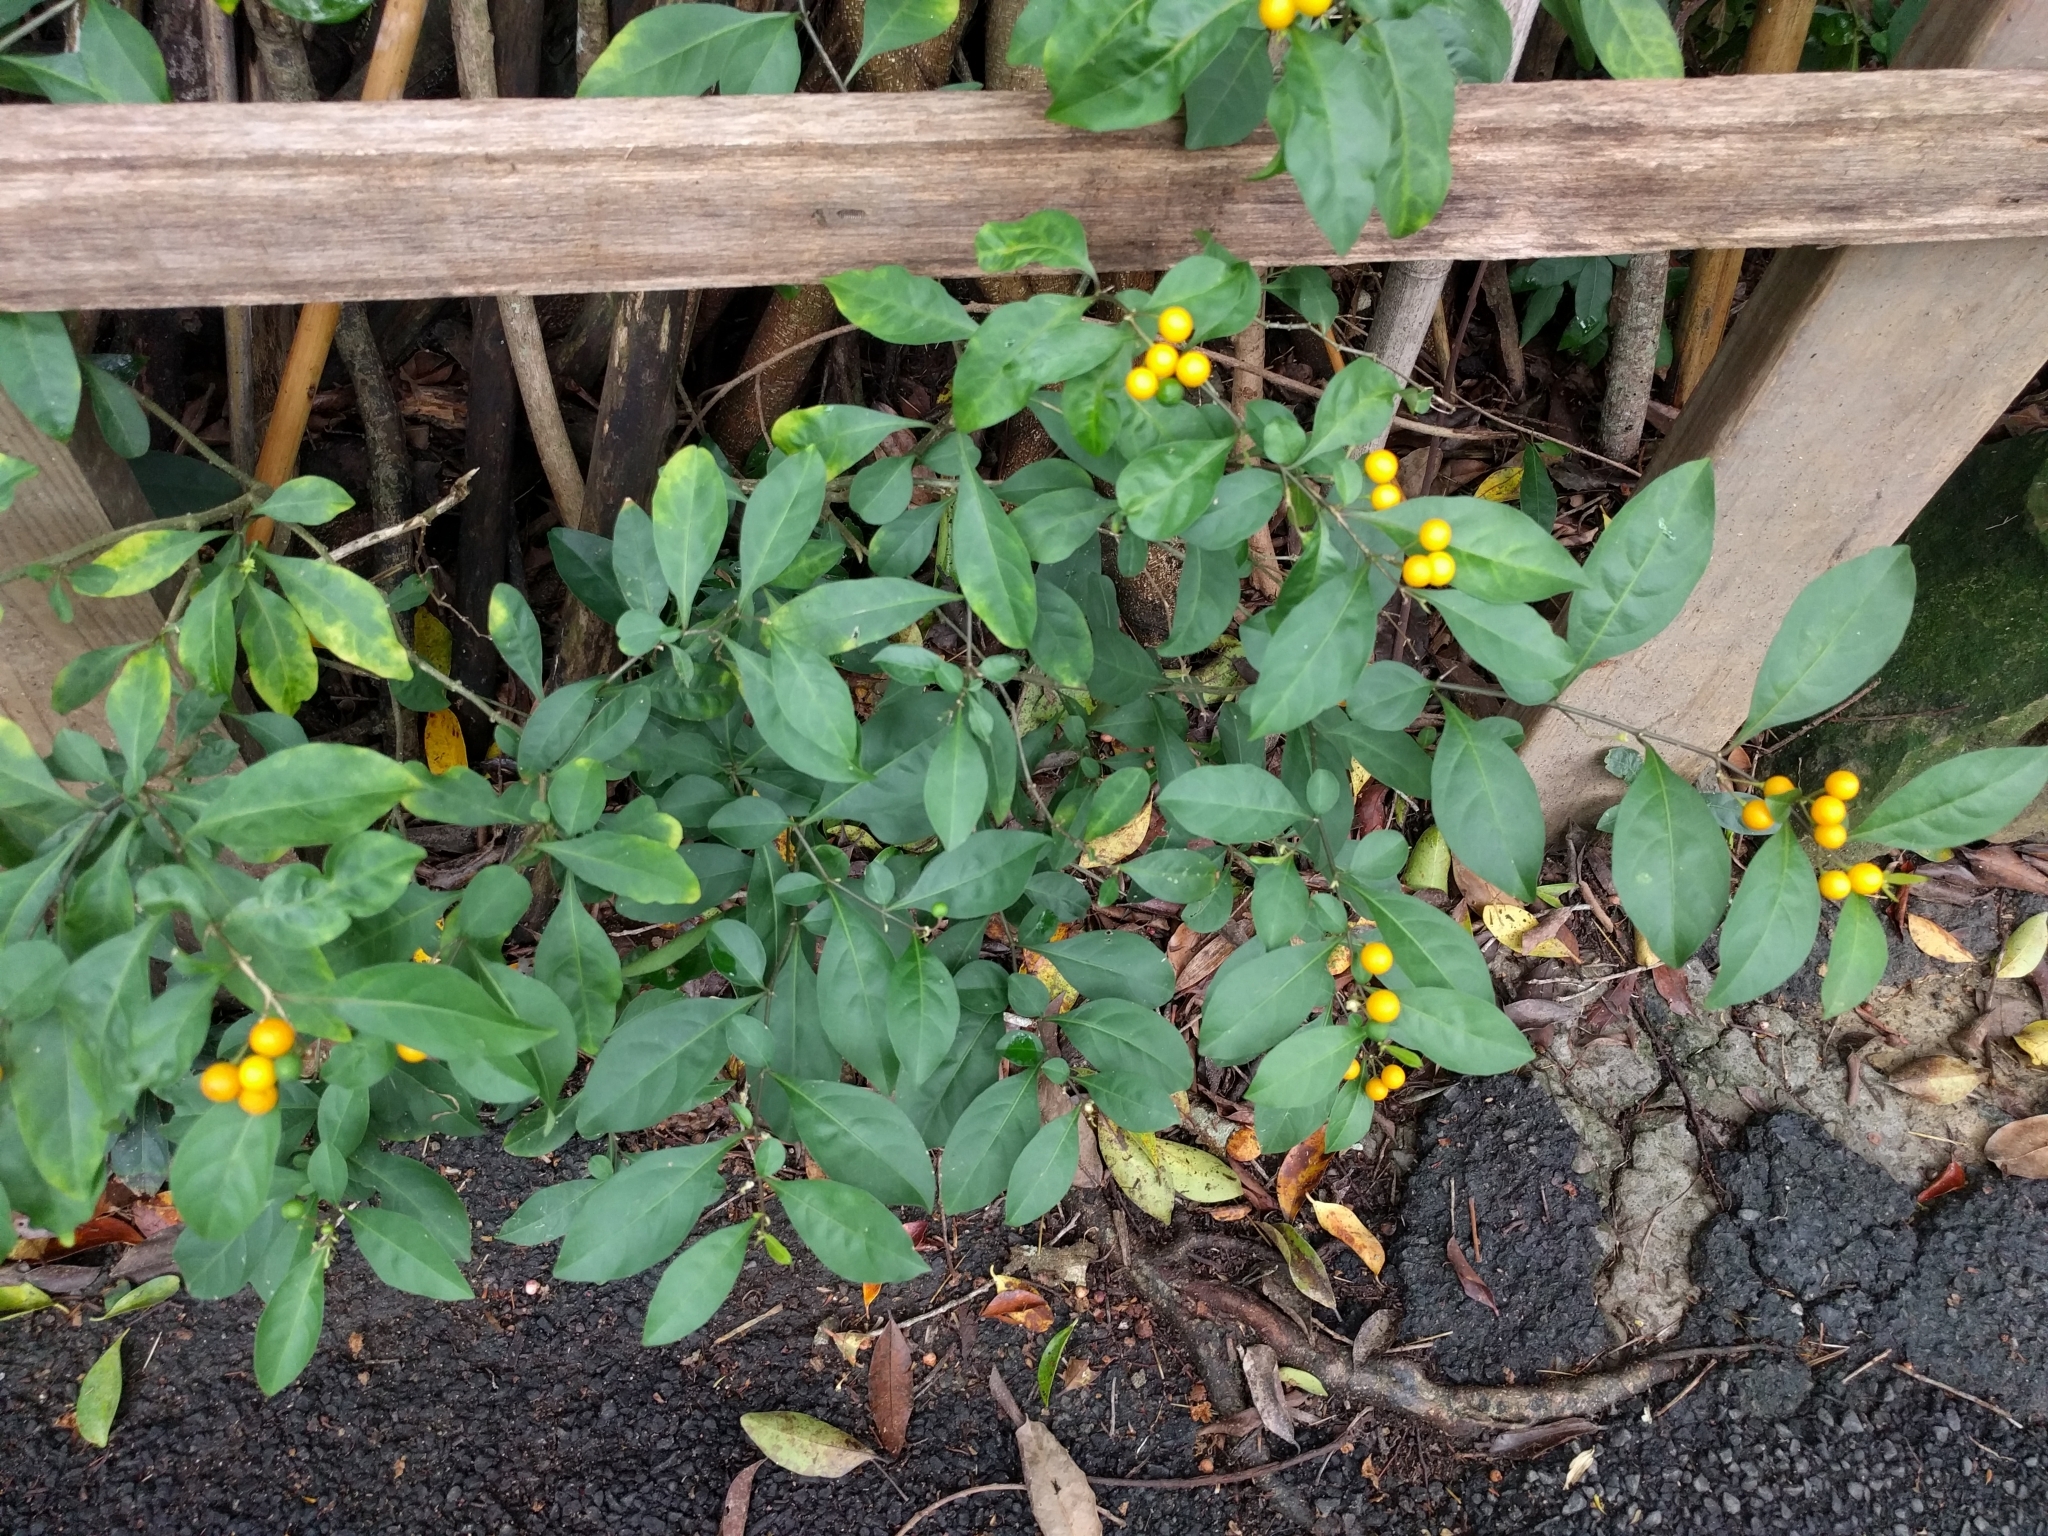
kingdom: Plantae
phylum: Tracheophyta
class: Magnoliopsida
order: Solanales
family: Solanaceae
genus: Solanum
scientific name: Solanum diphyllum
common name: Twoleaf nightshade
